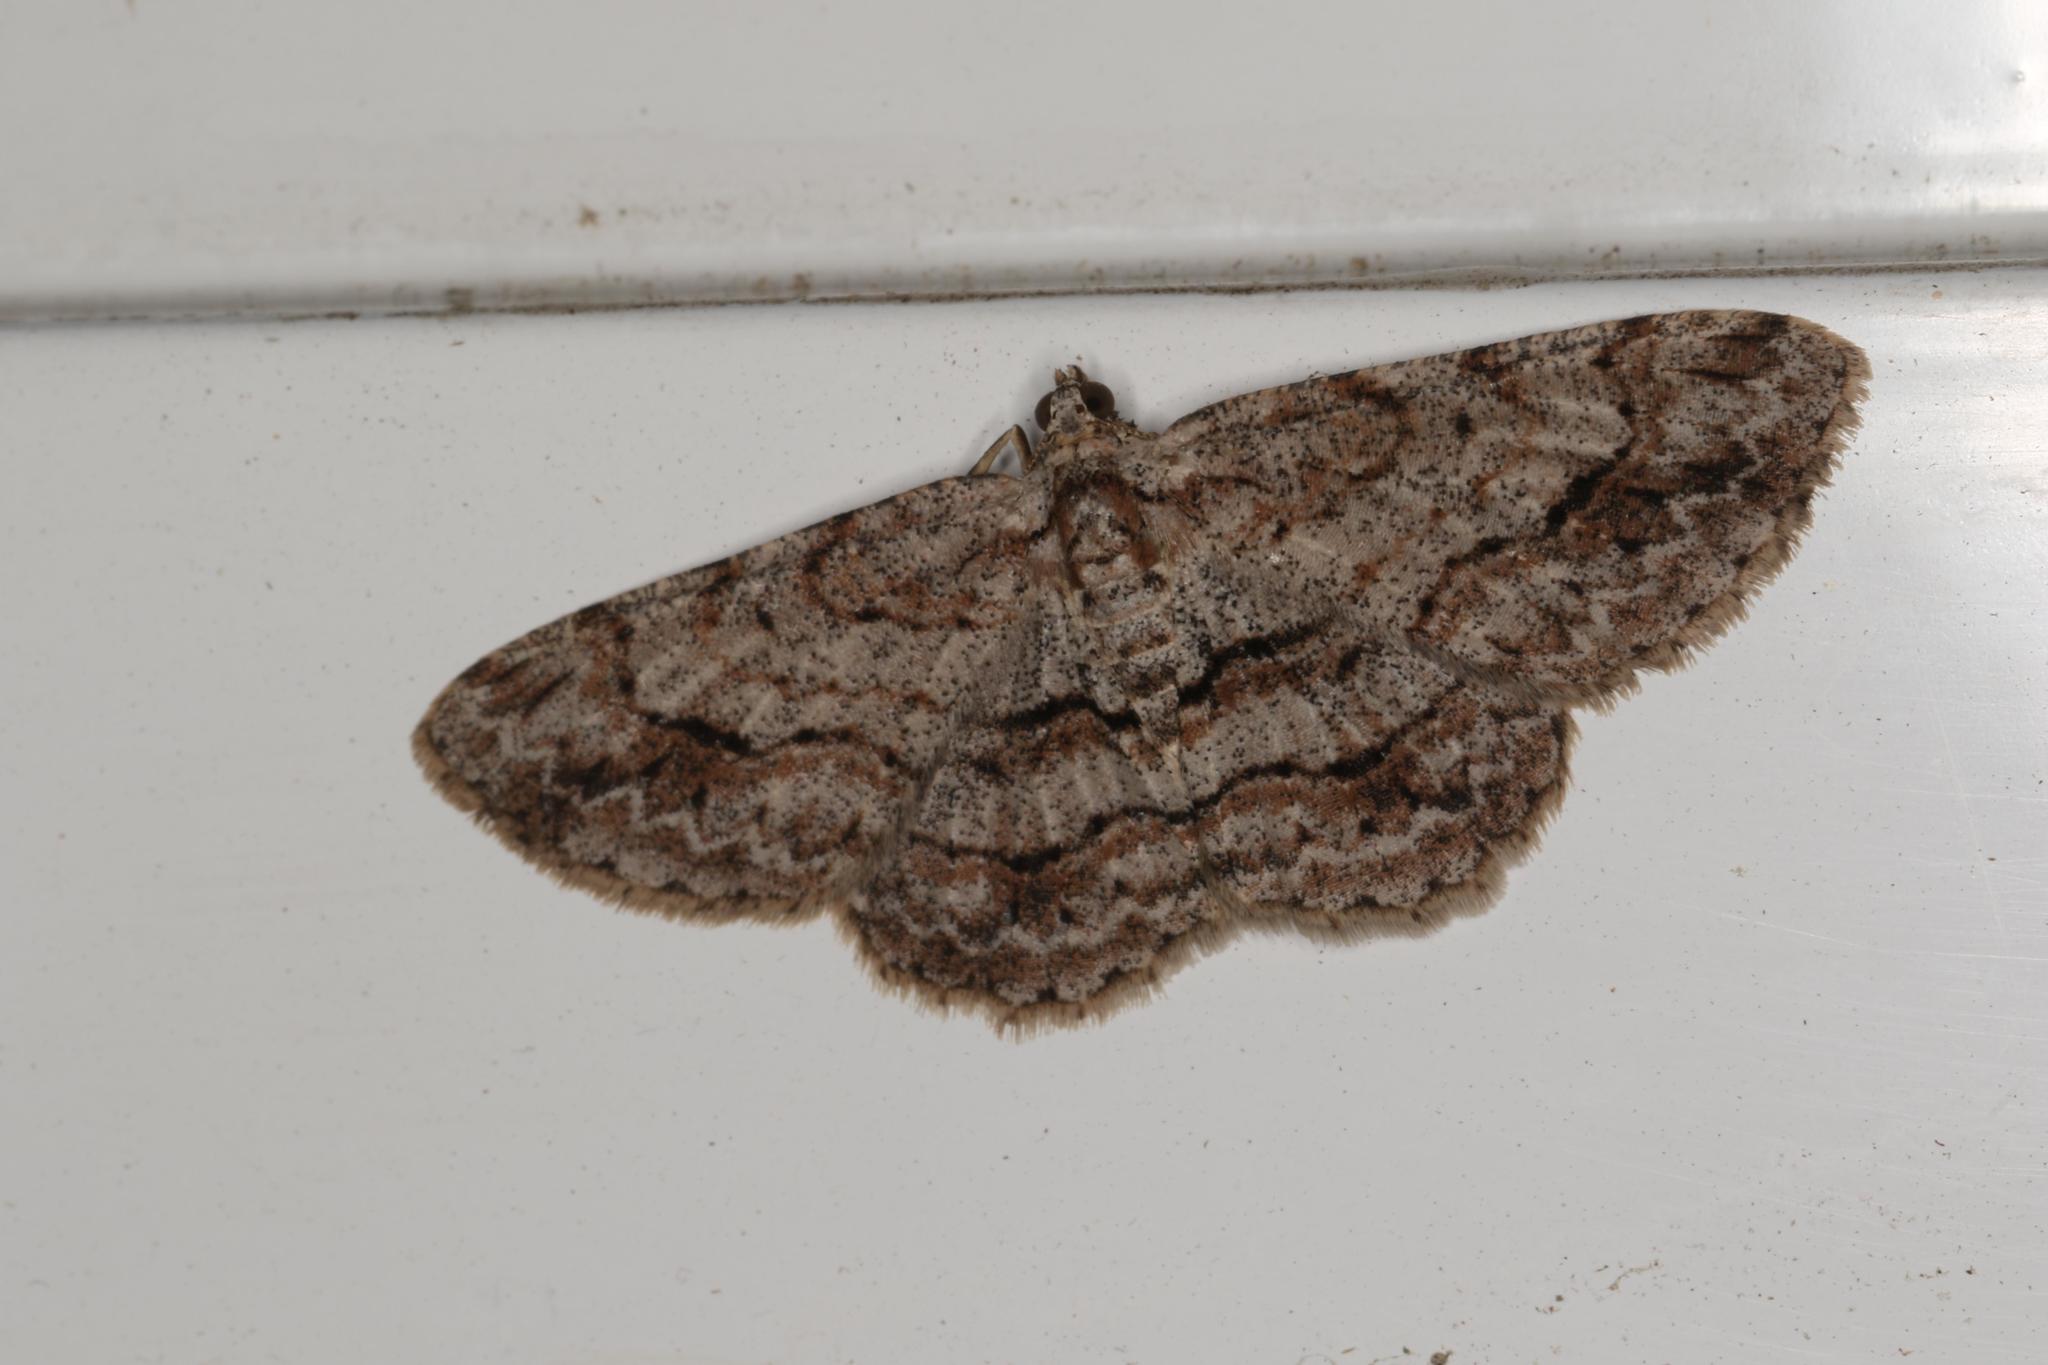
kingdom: Animalia
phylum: Arthropoda
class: Insecta
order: Lepidoptera
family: Geometridae
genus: Didymoctenia
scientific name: Didymoctenia exsuperata
